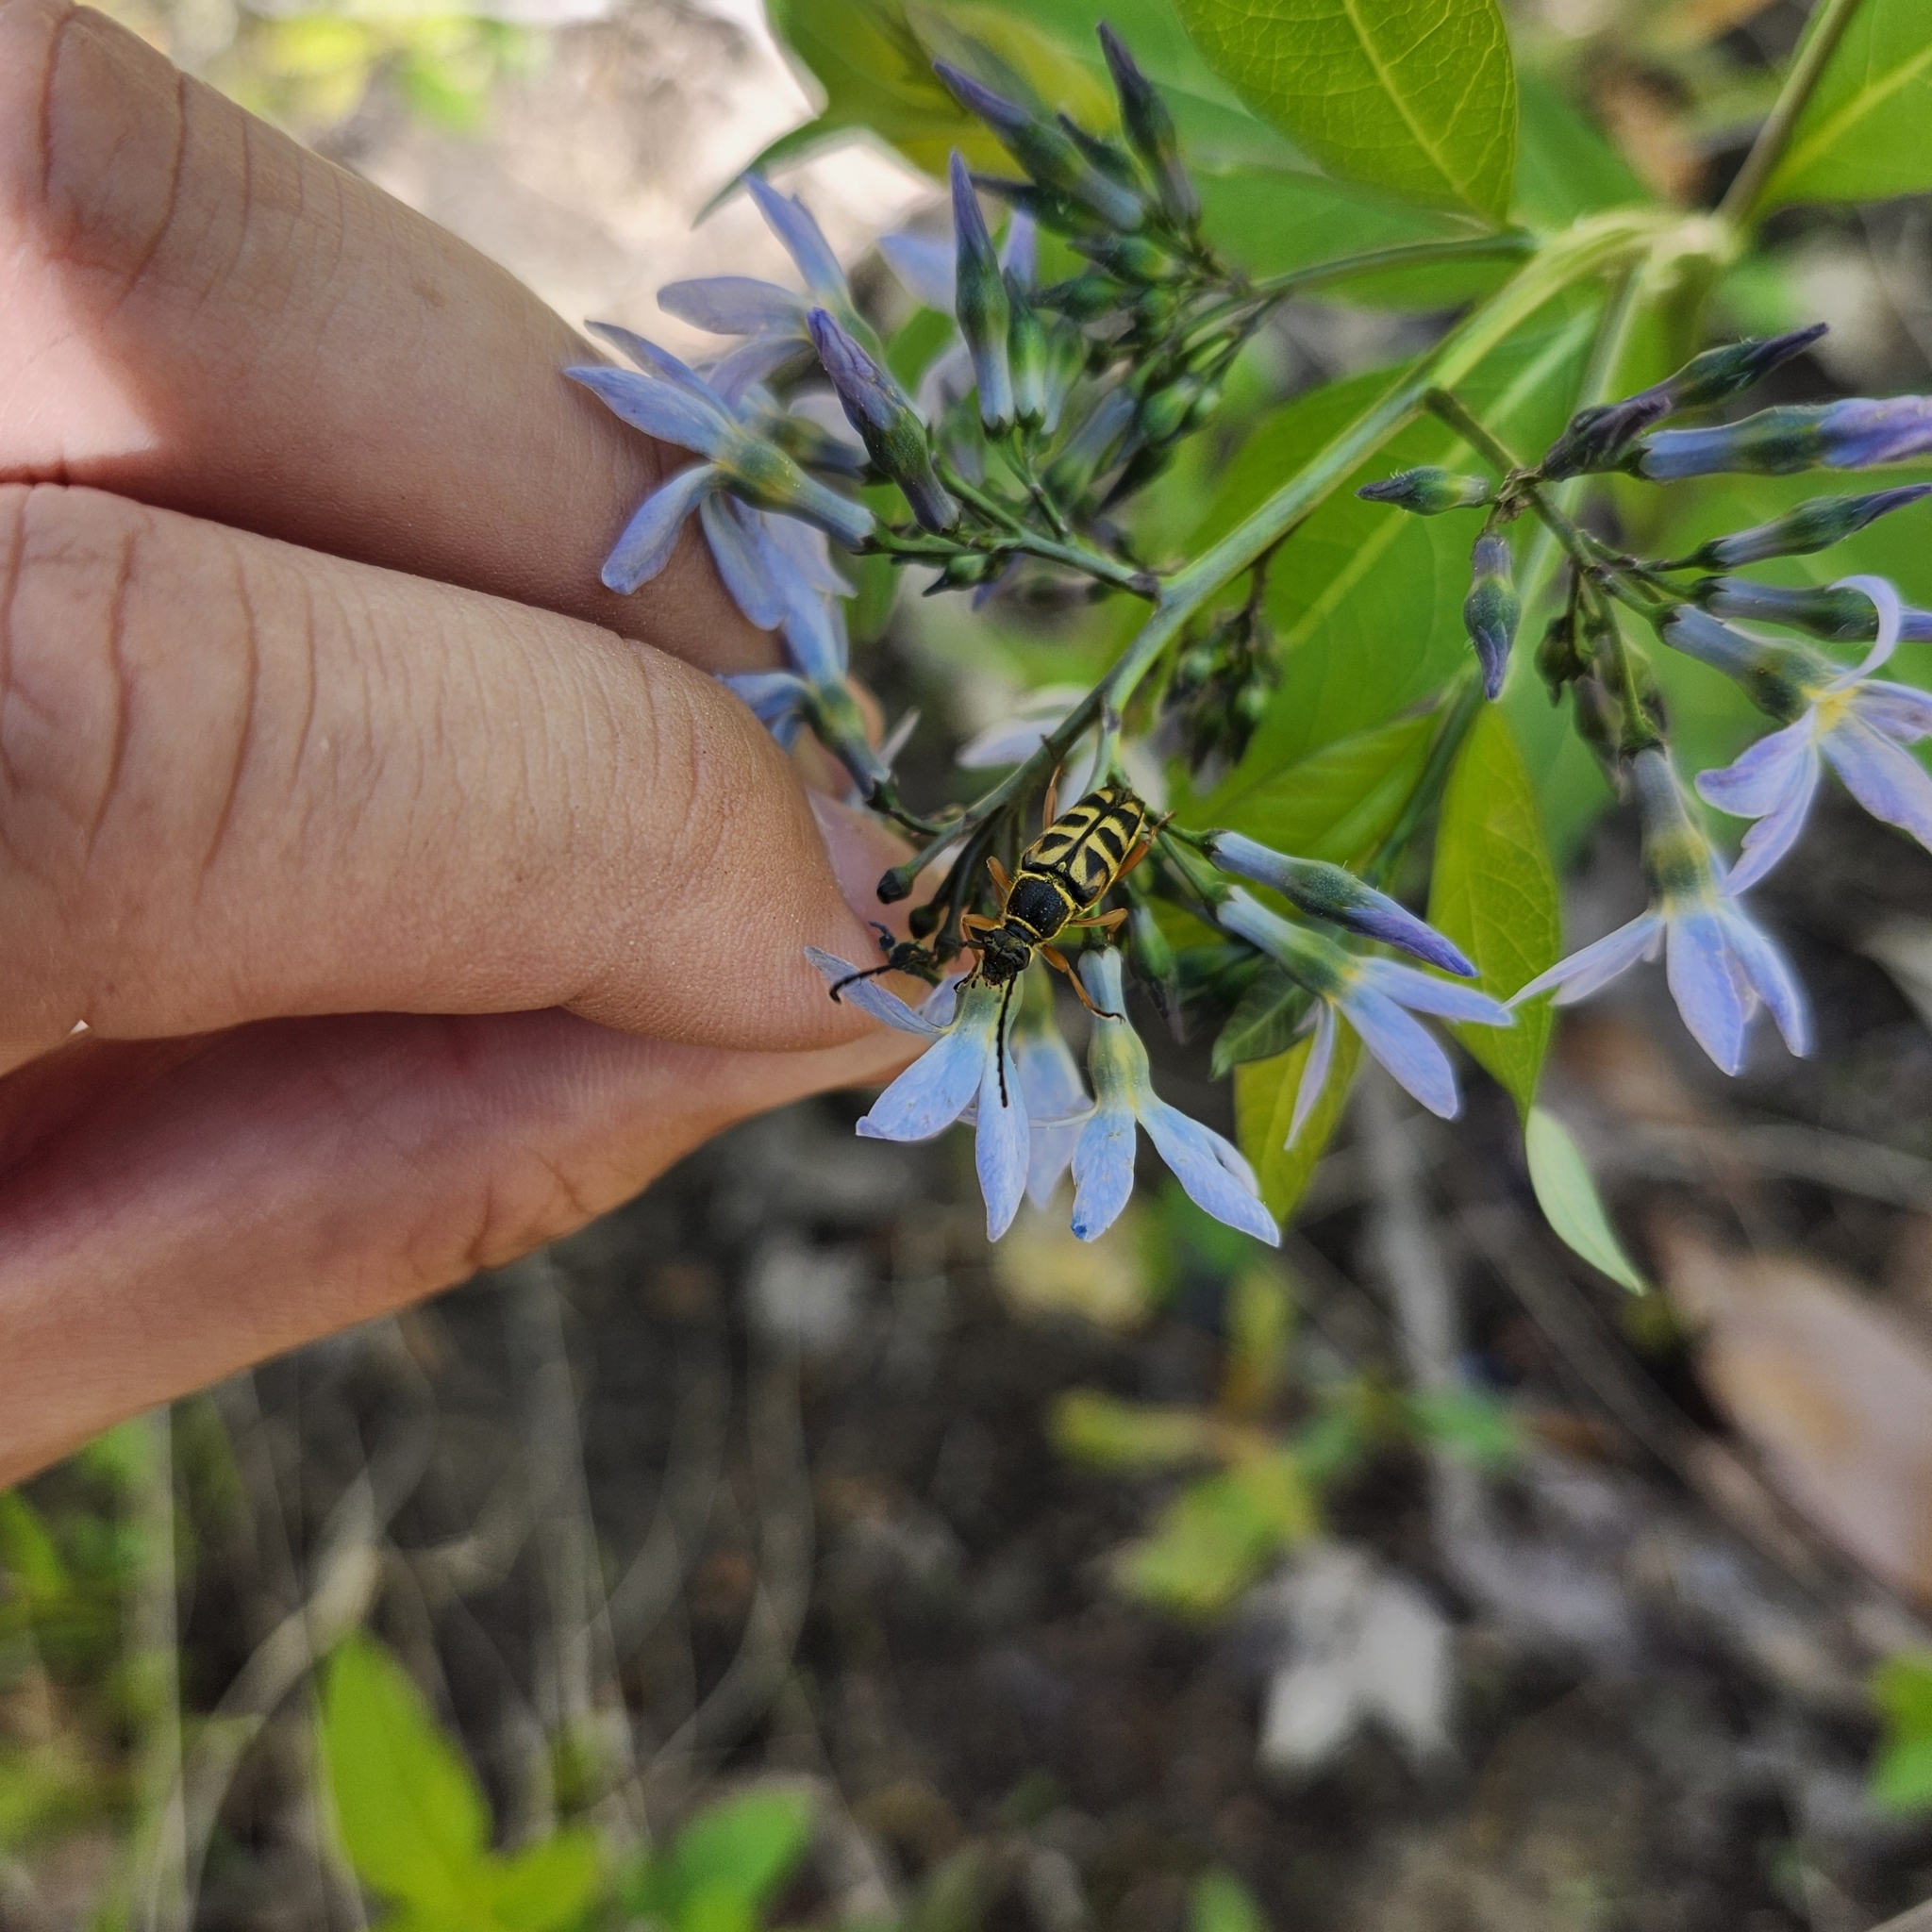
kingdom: Animalia
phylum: Arthropoda
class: Insecta
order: Coleoptera
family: Cerambycidae
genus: Typocerus
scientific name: Typocerus zebra
